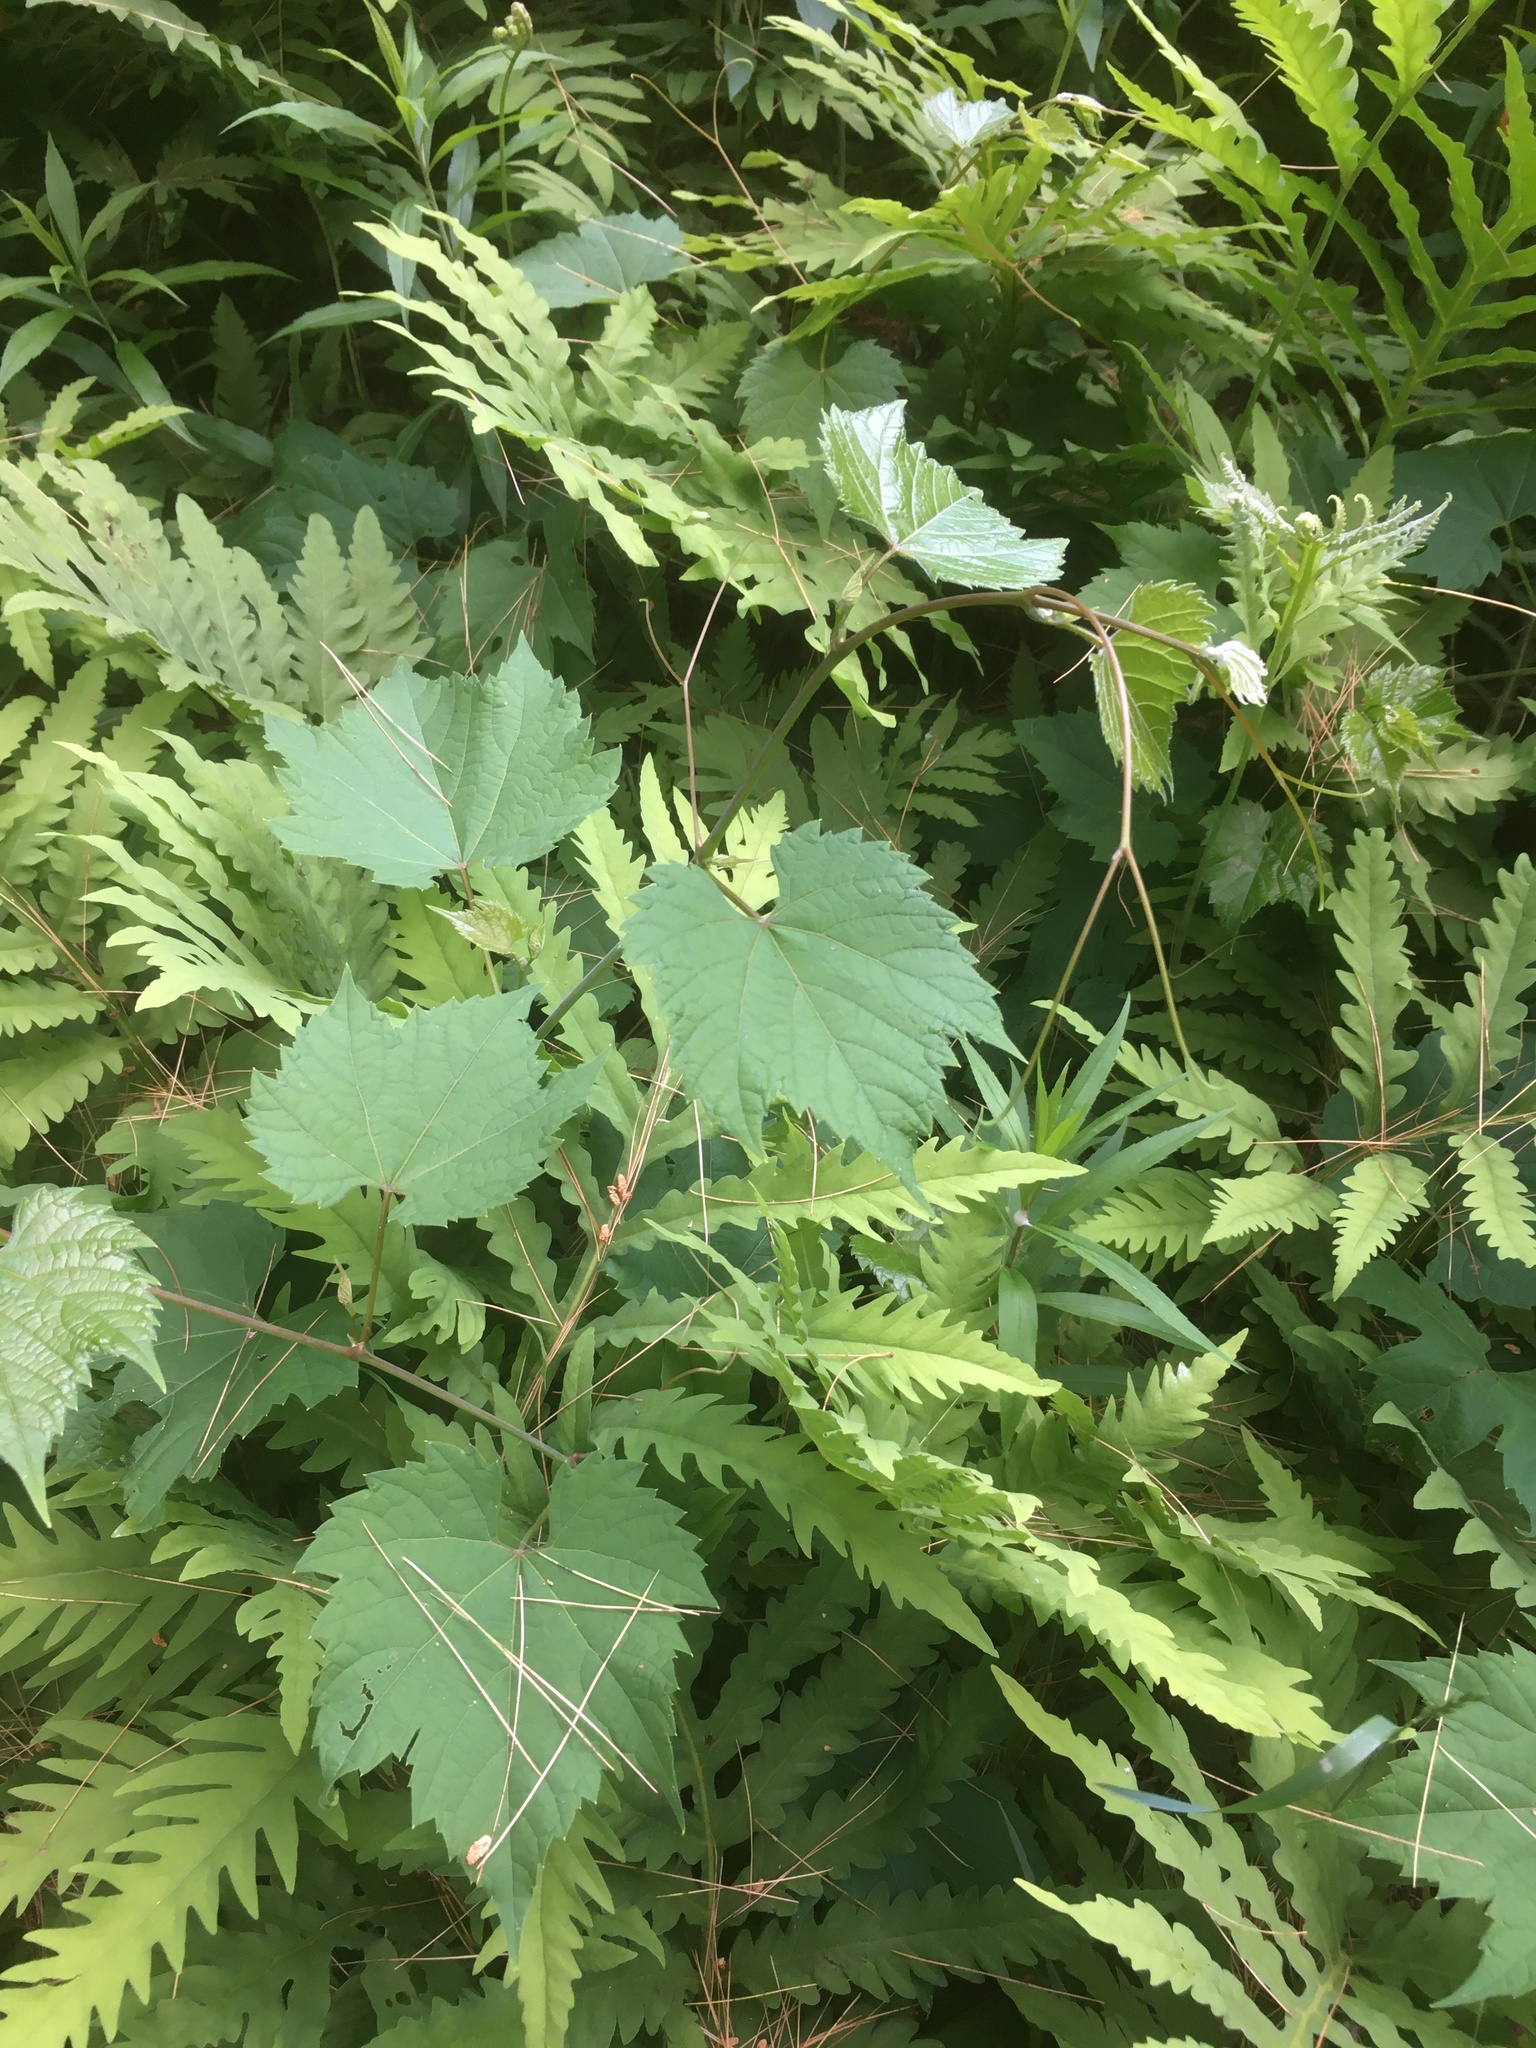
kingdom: Plantae
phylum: Tracheophyta
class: Magnoliopsida
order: Vitales
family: Vitaceae
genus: Vitis
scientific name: Vitis riparia
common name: Frost grape
